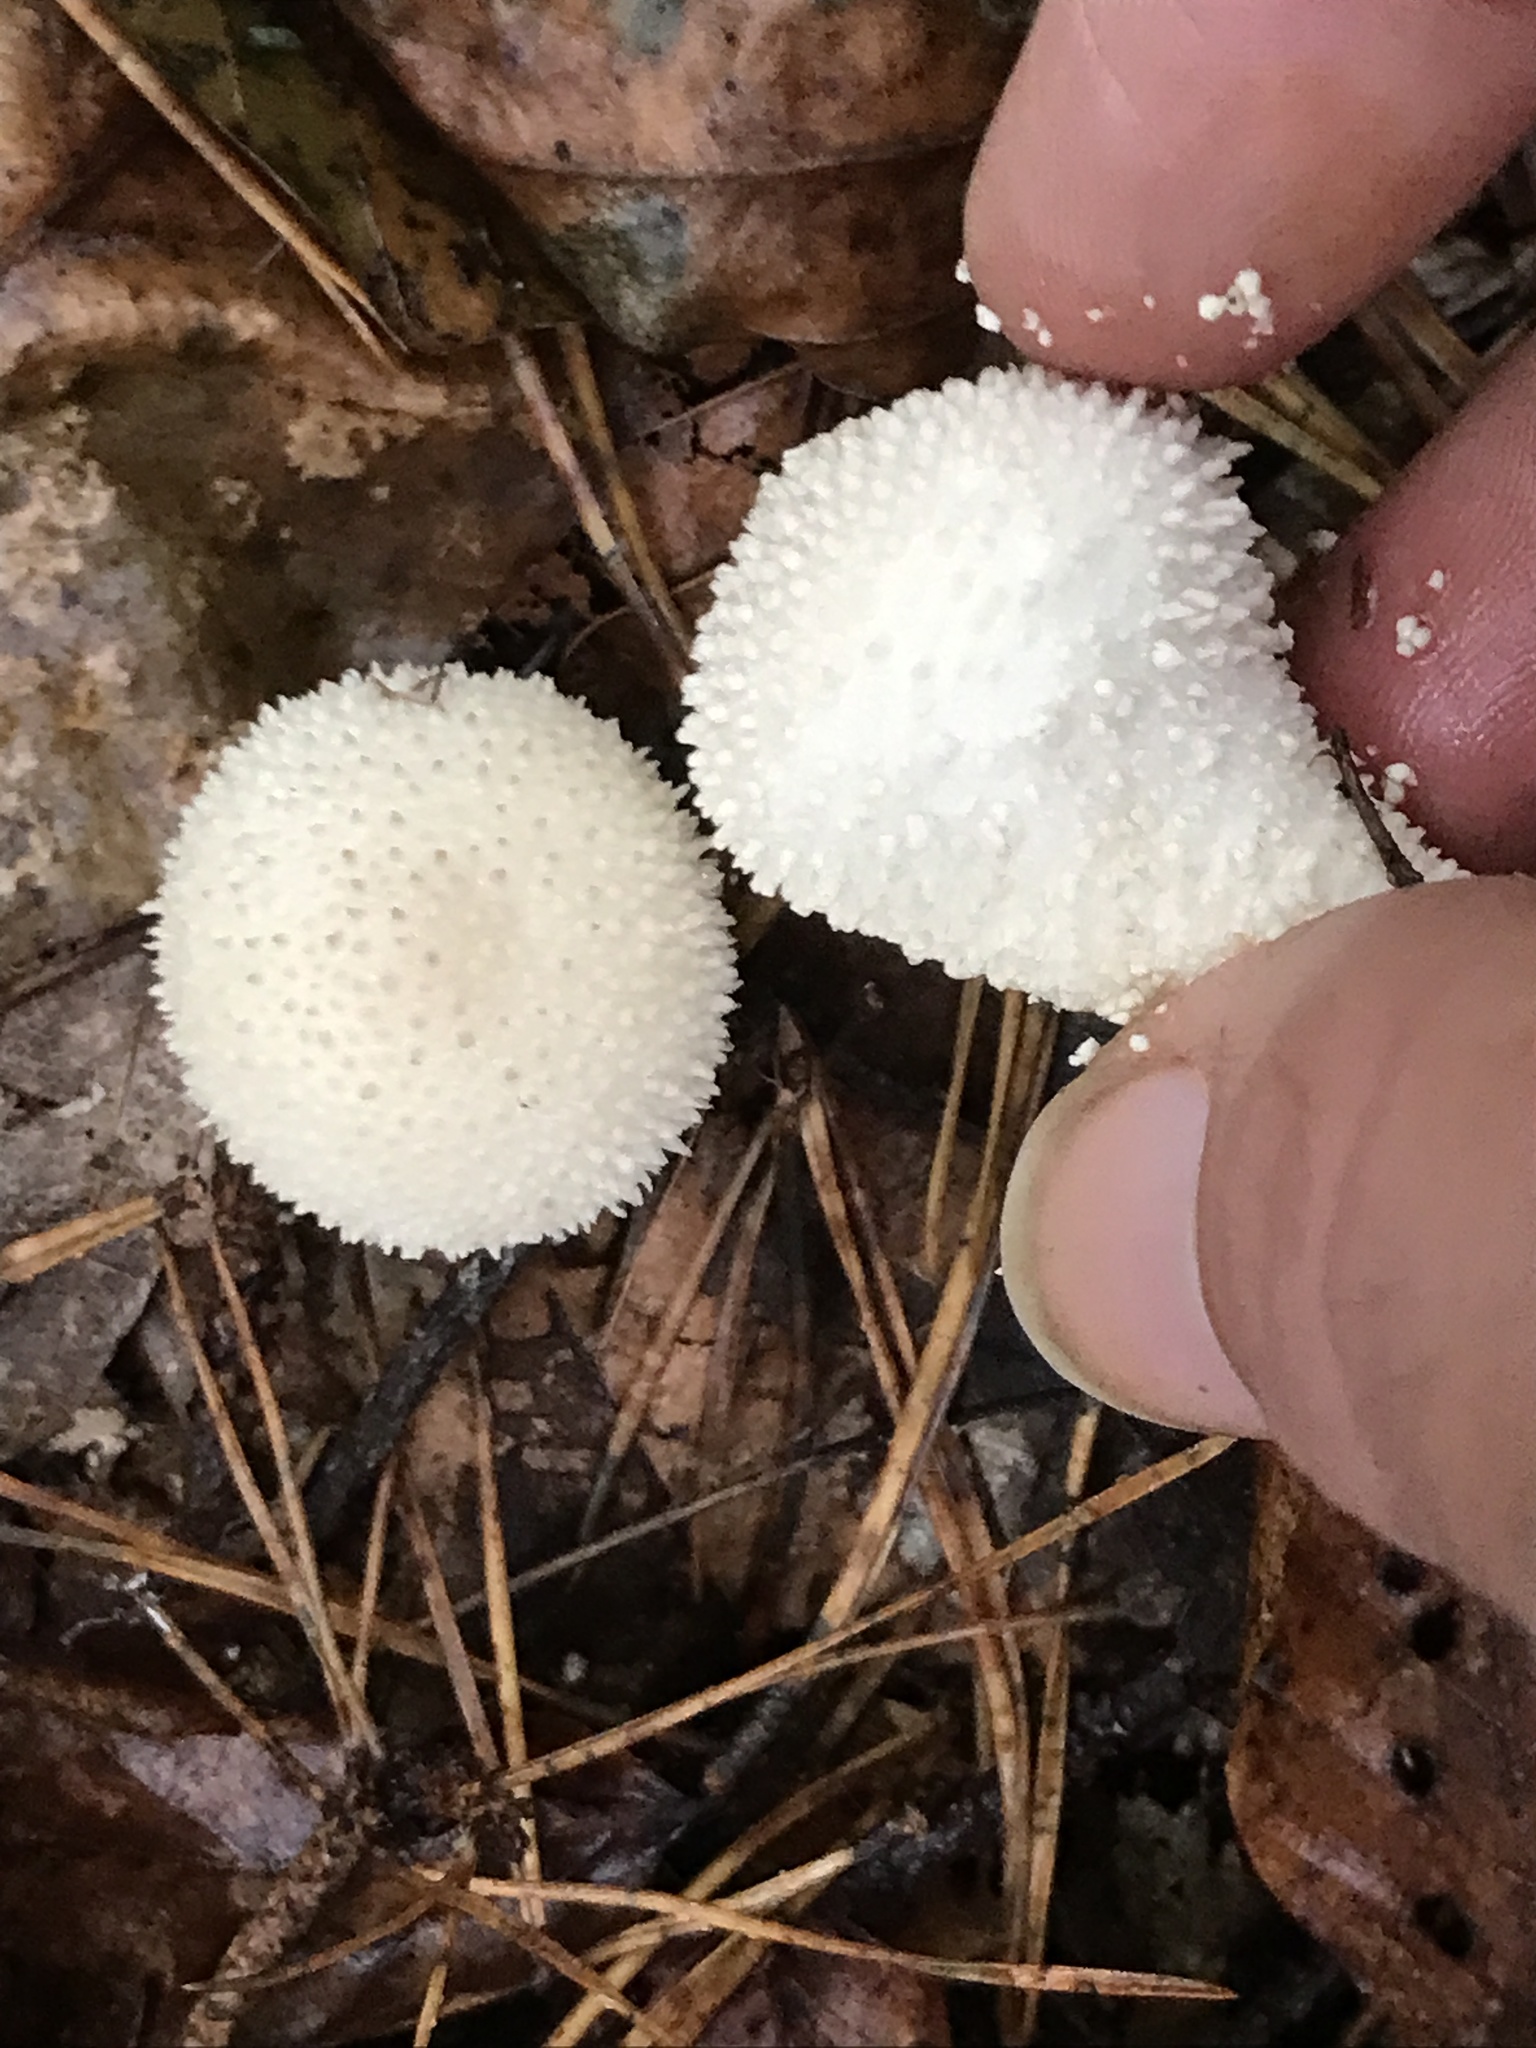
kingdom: Fungi
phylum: Basidiomycota
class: Agaricomycetes
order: Agaricales
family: Lycoperdaceae
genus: Lycoperdon
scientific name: Lycoperdon perlatum
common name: Common puffball
